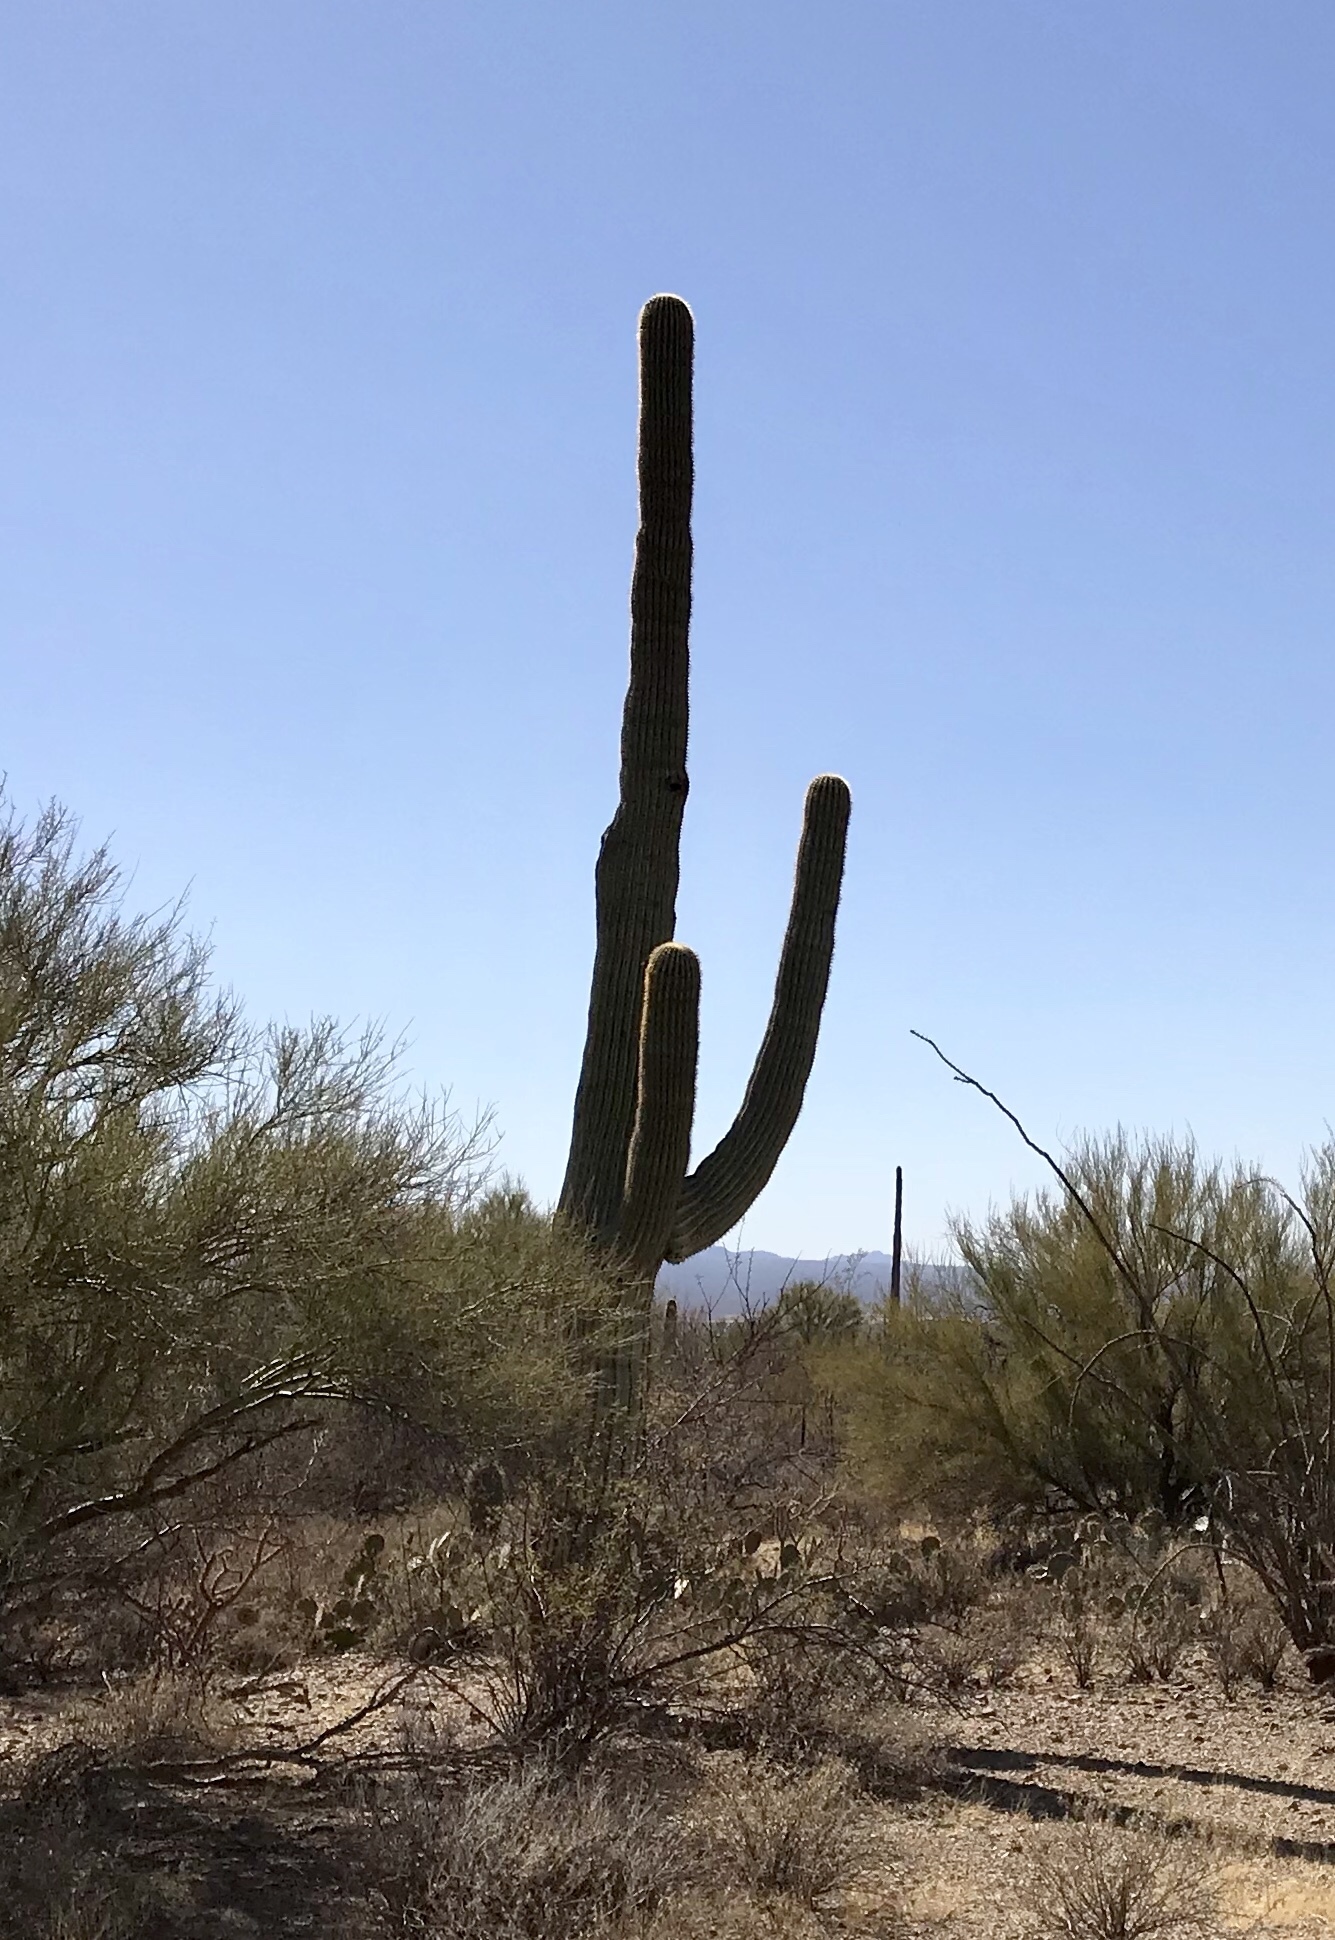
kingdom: Plantae
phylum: Tracheophyta
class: Magnoliopsida
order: Caryophyllales
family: Cactaceae
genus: Carnegiea
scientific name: Carnegiea gigantea
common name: Saguaro
